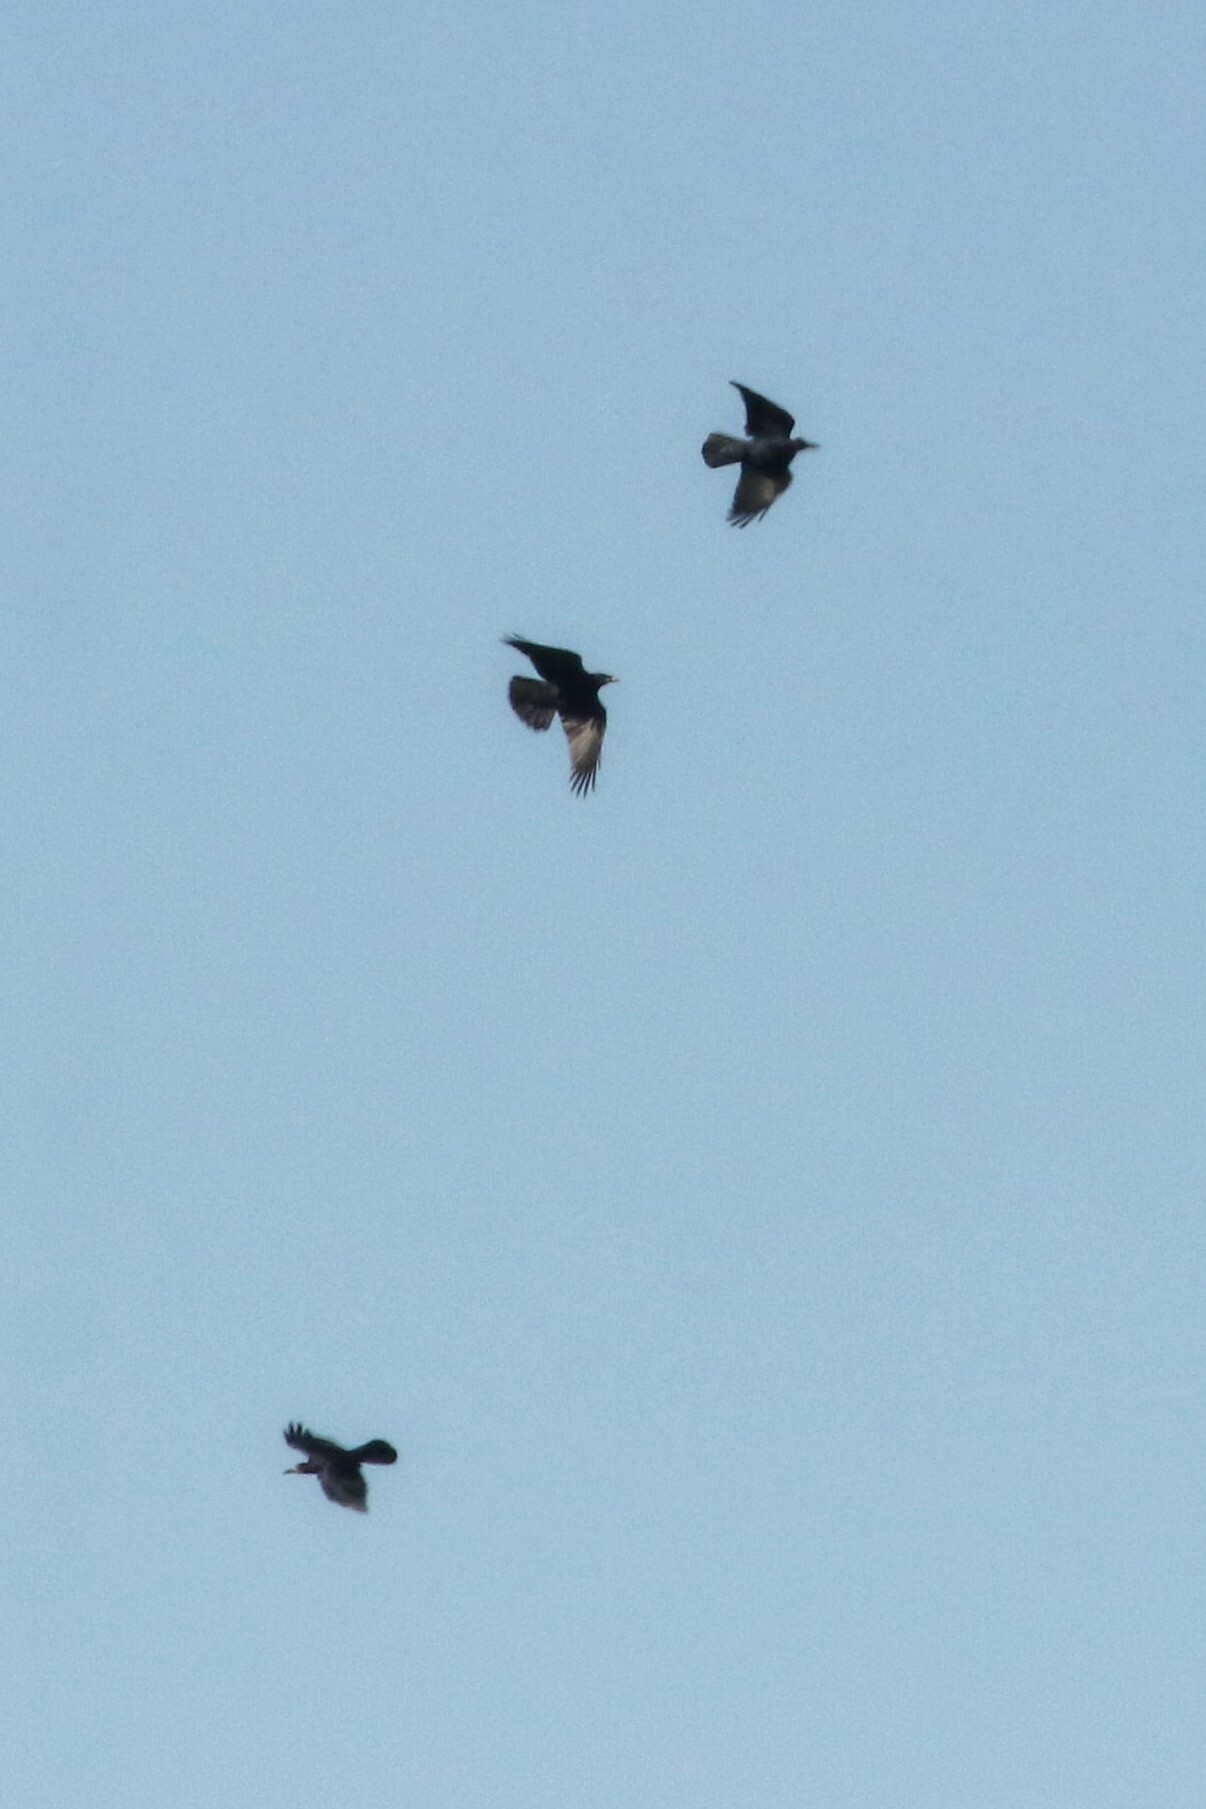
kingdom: Animalia
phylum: Chordata
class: Aves
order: Passeriformes
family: Corvidae
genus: Corvus
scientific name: Corvus frugilegus
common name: Rook
